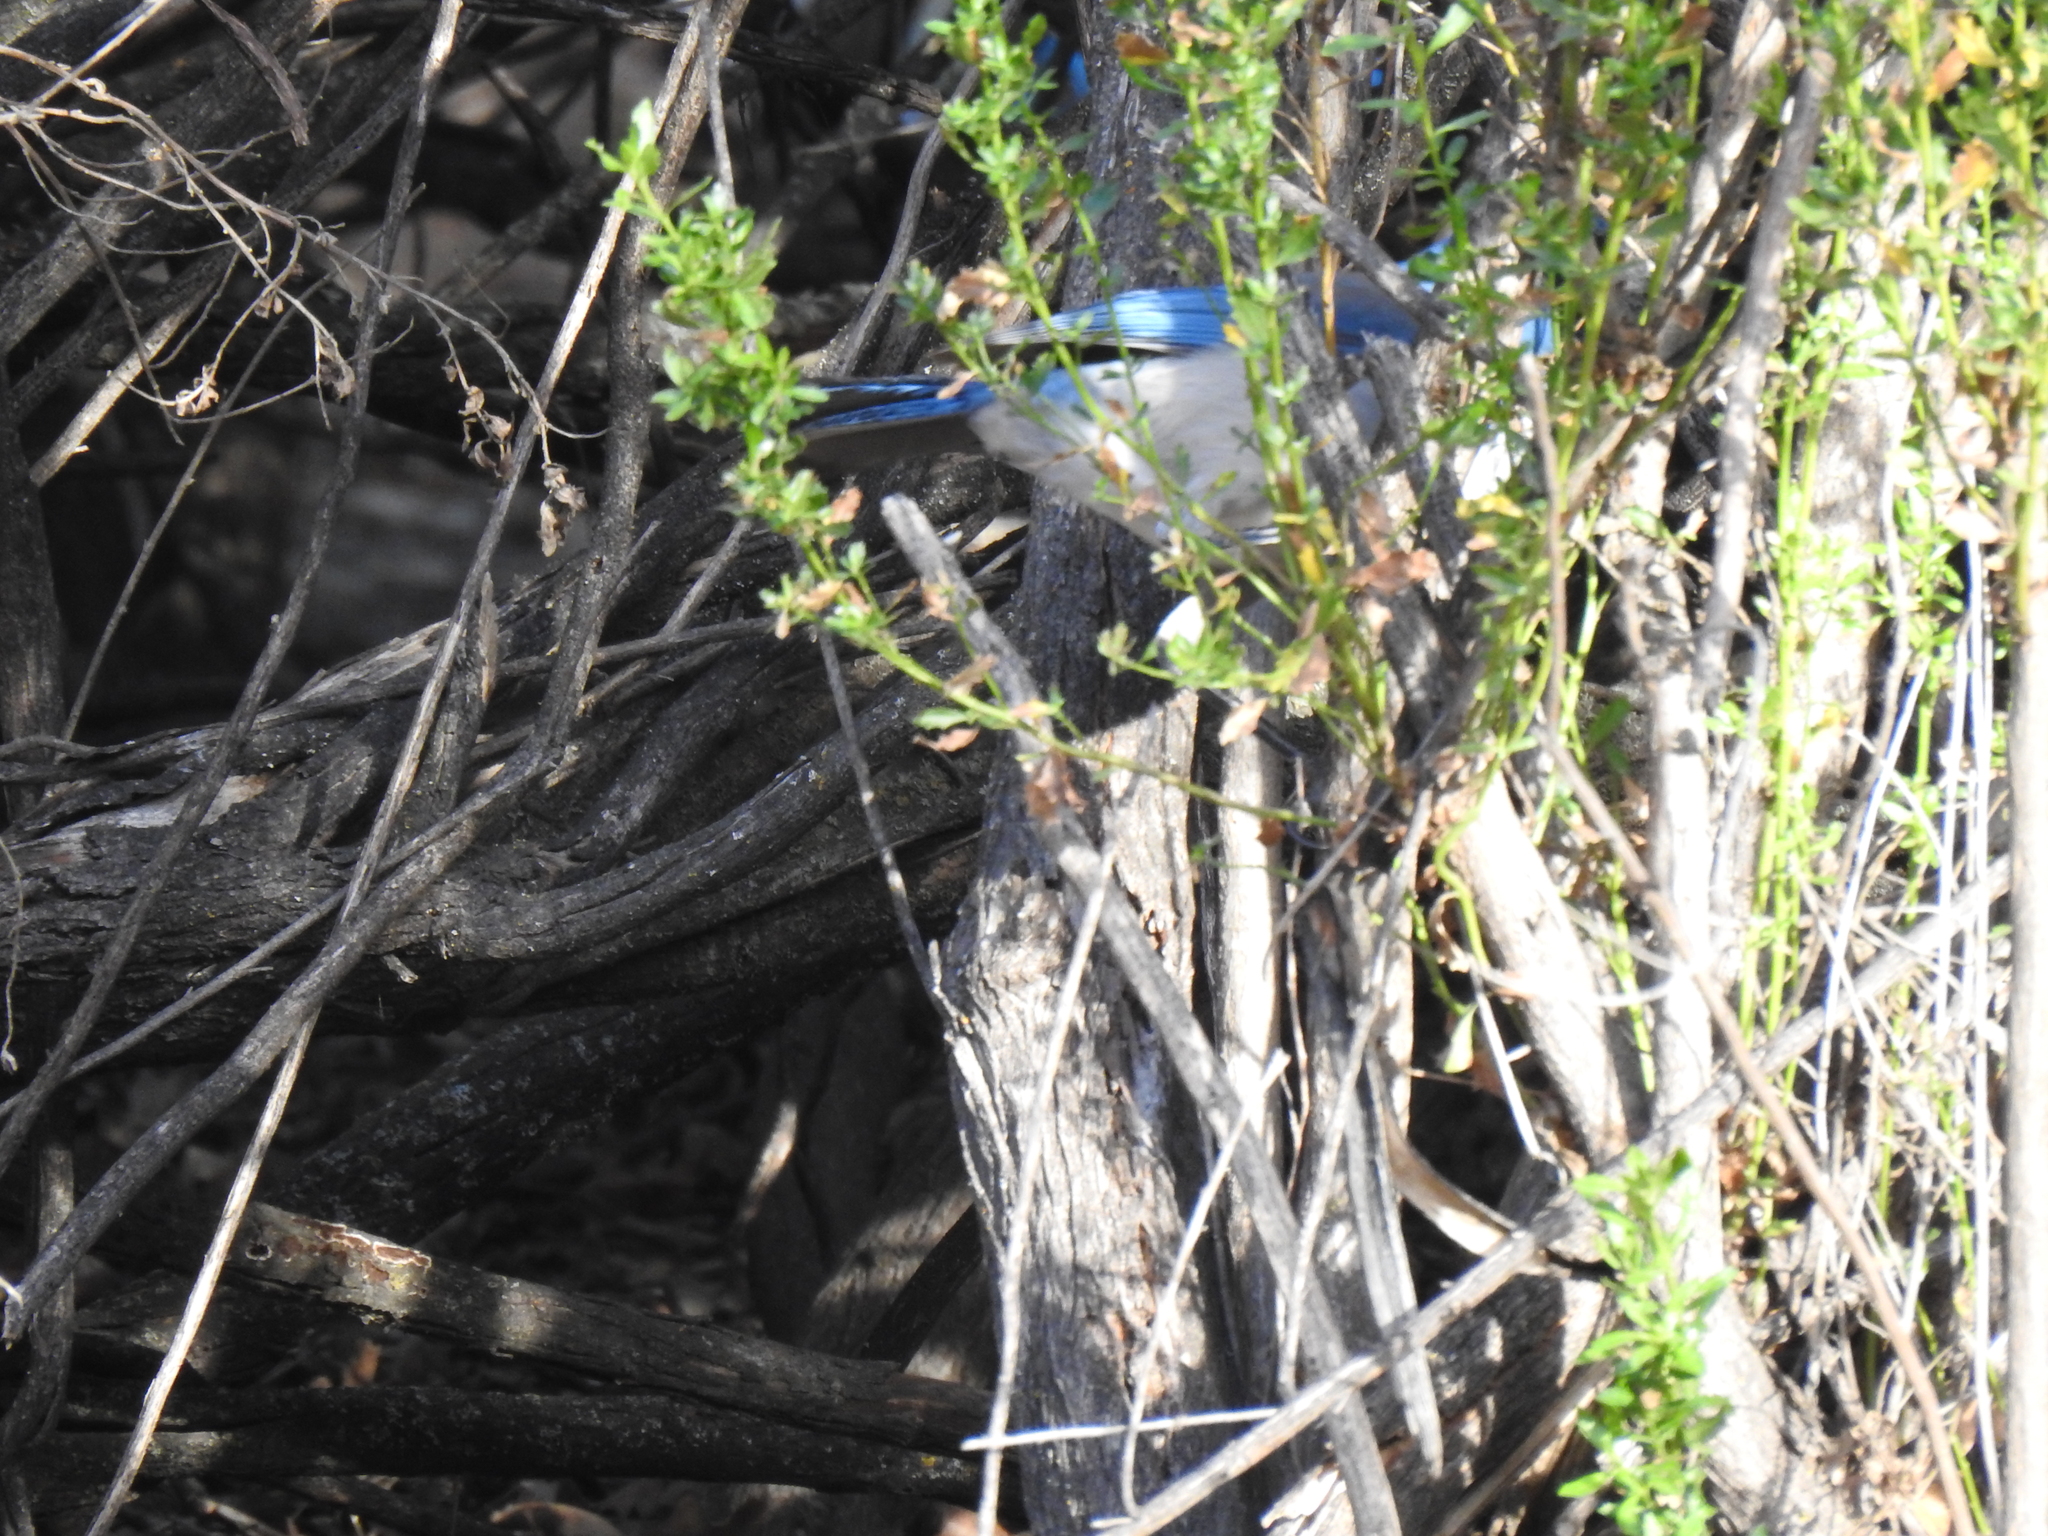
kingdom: Animalia
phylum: Chordata
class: Aves
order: Passeriformes
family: Corvidae
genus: Aphelocoma
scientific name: Aphelocoma californica
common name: California scrub-jay
